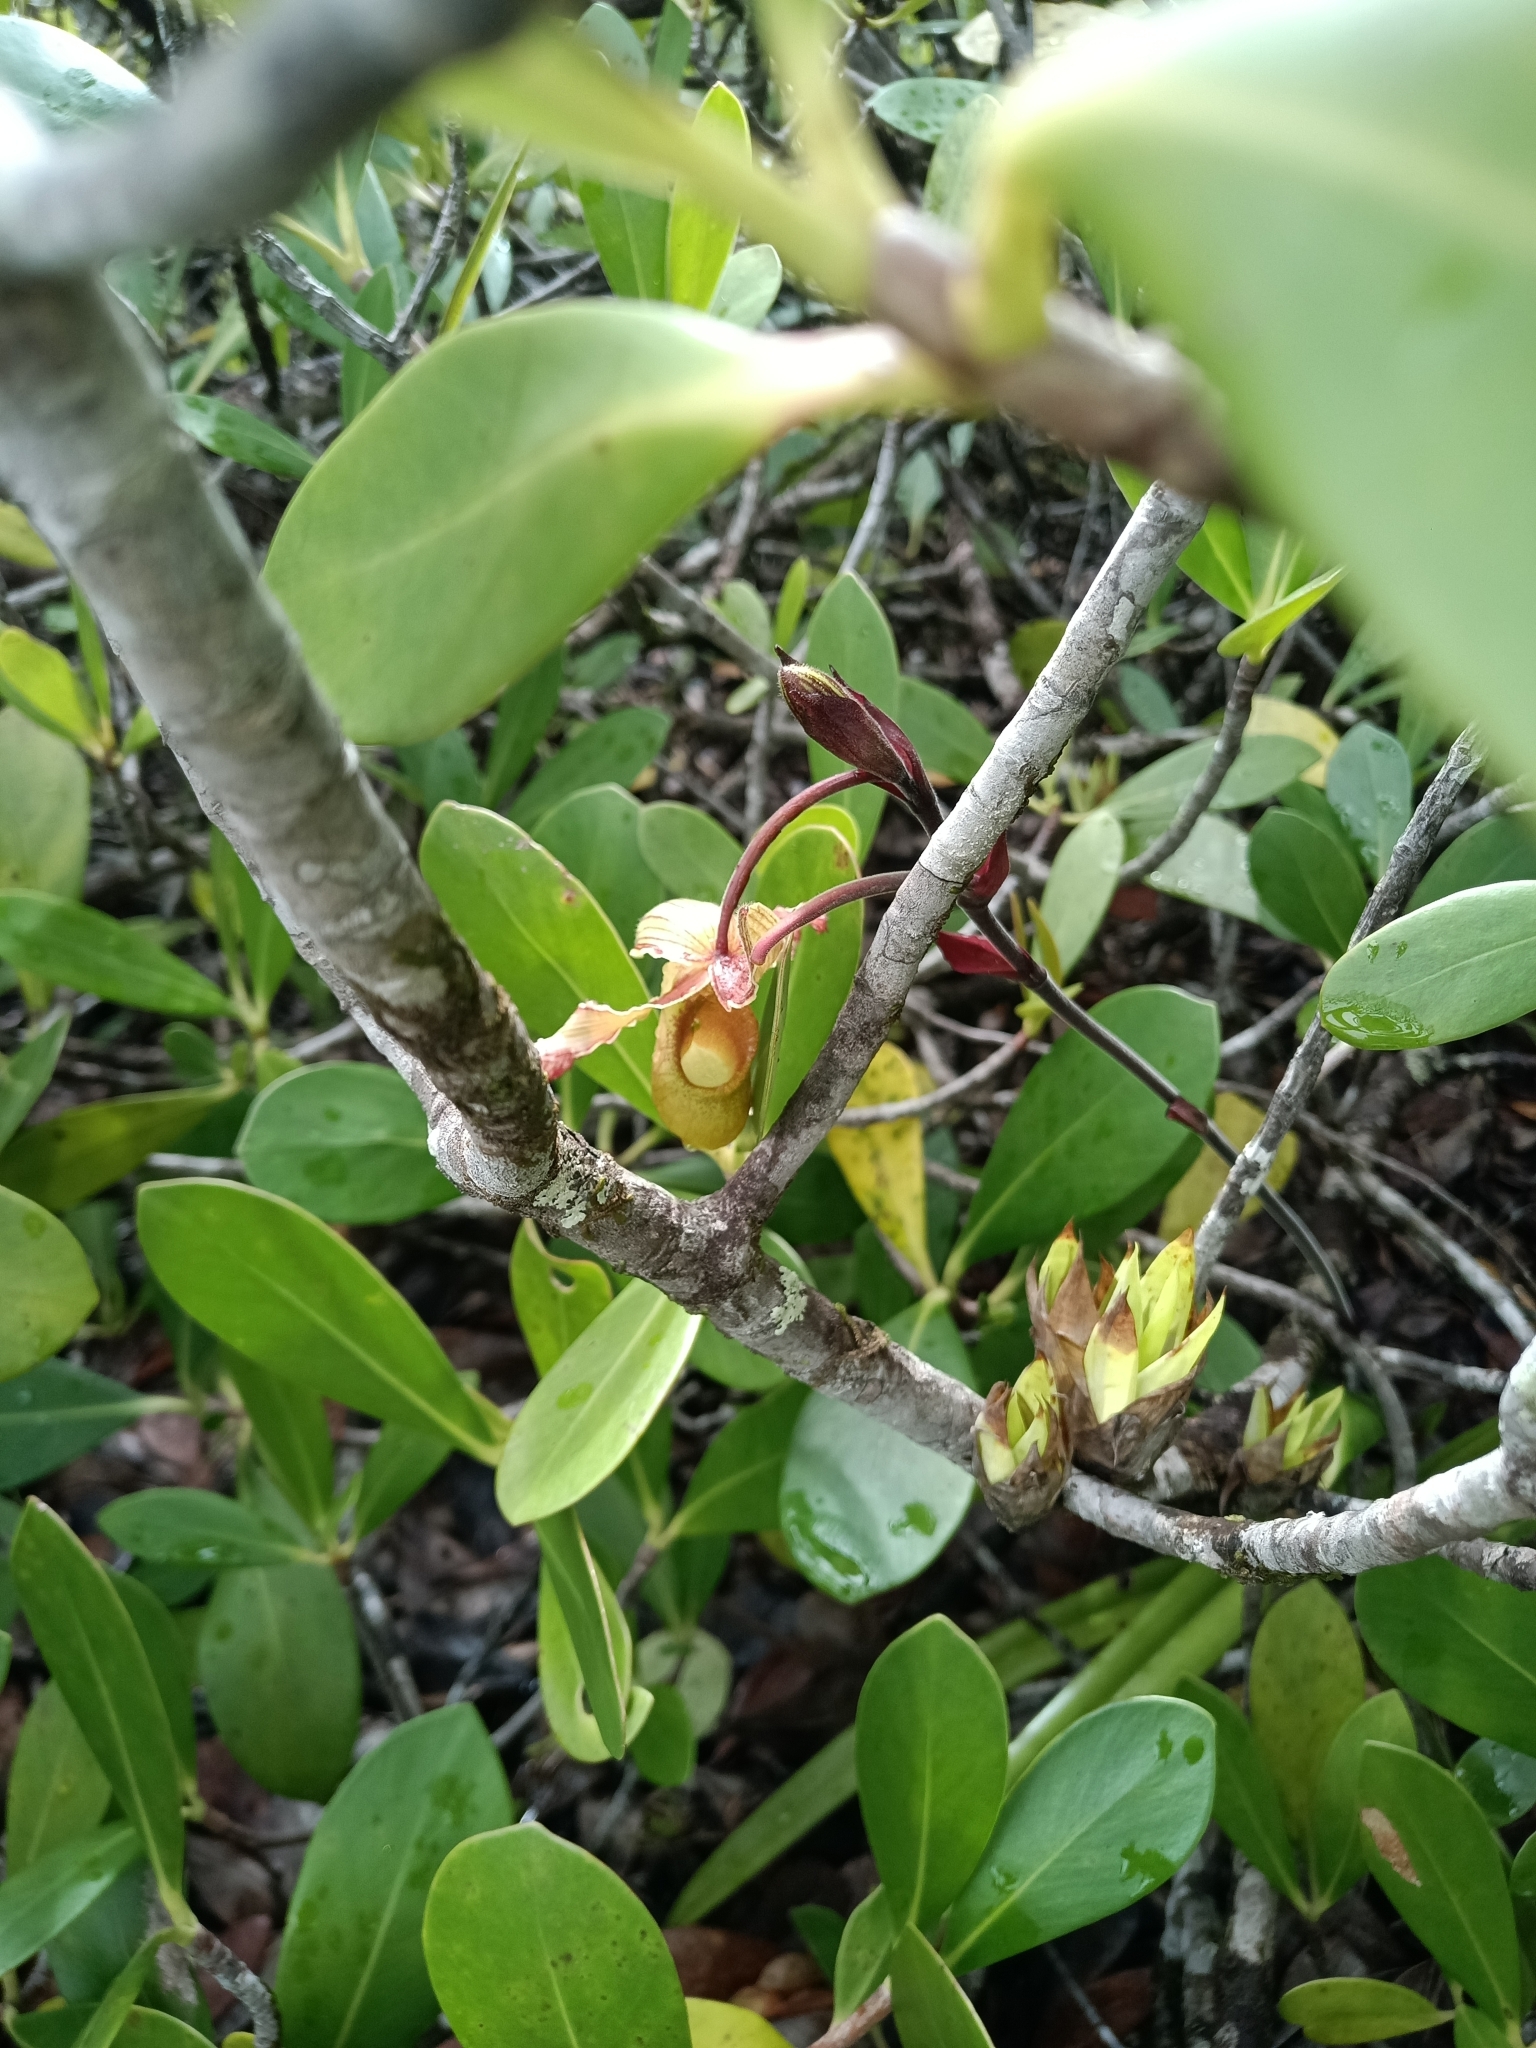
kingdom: Plantae
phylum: Tracheophyta
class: Liliopsida
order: Asparagales
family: Orchidaceae
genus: Phragmipedium
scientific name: Phragmipedium lindleyanum
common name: Lindley's phragmipedium
